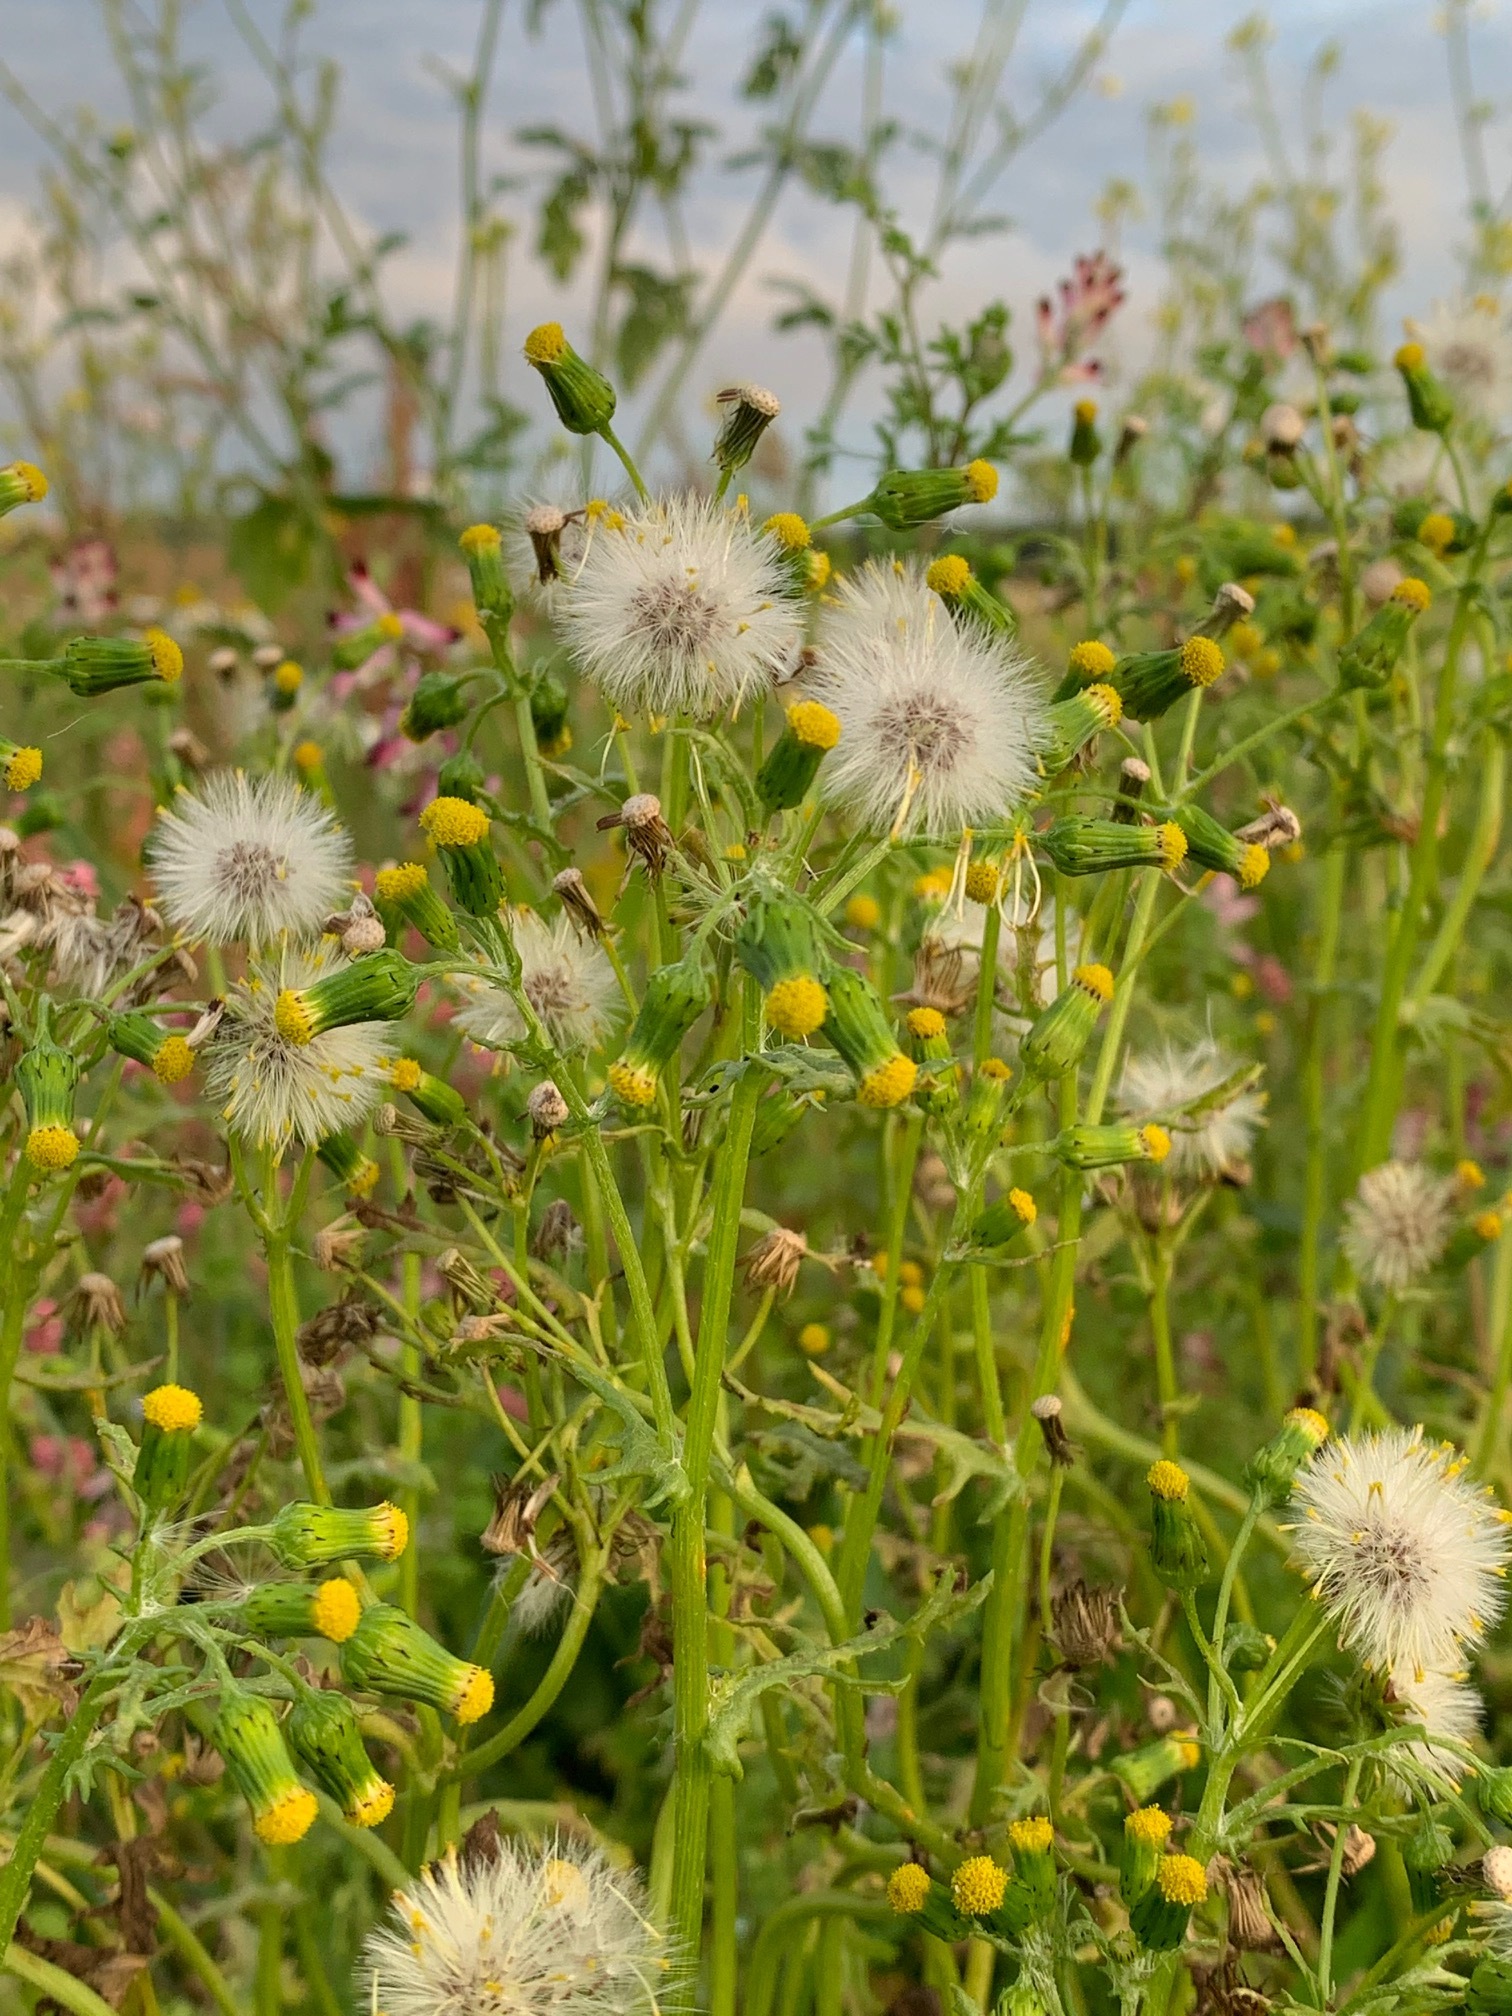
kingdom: Plantae
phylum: Tracheophyta
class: Magnoliopsida
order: Asterales
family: Asteraceae
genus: Senecio
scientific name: Senecio vulgaris
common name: Old-man-in-the-spring
